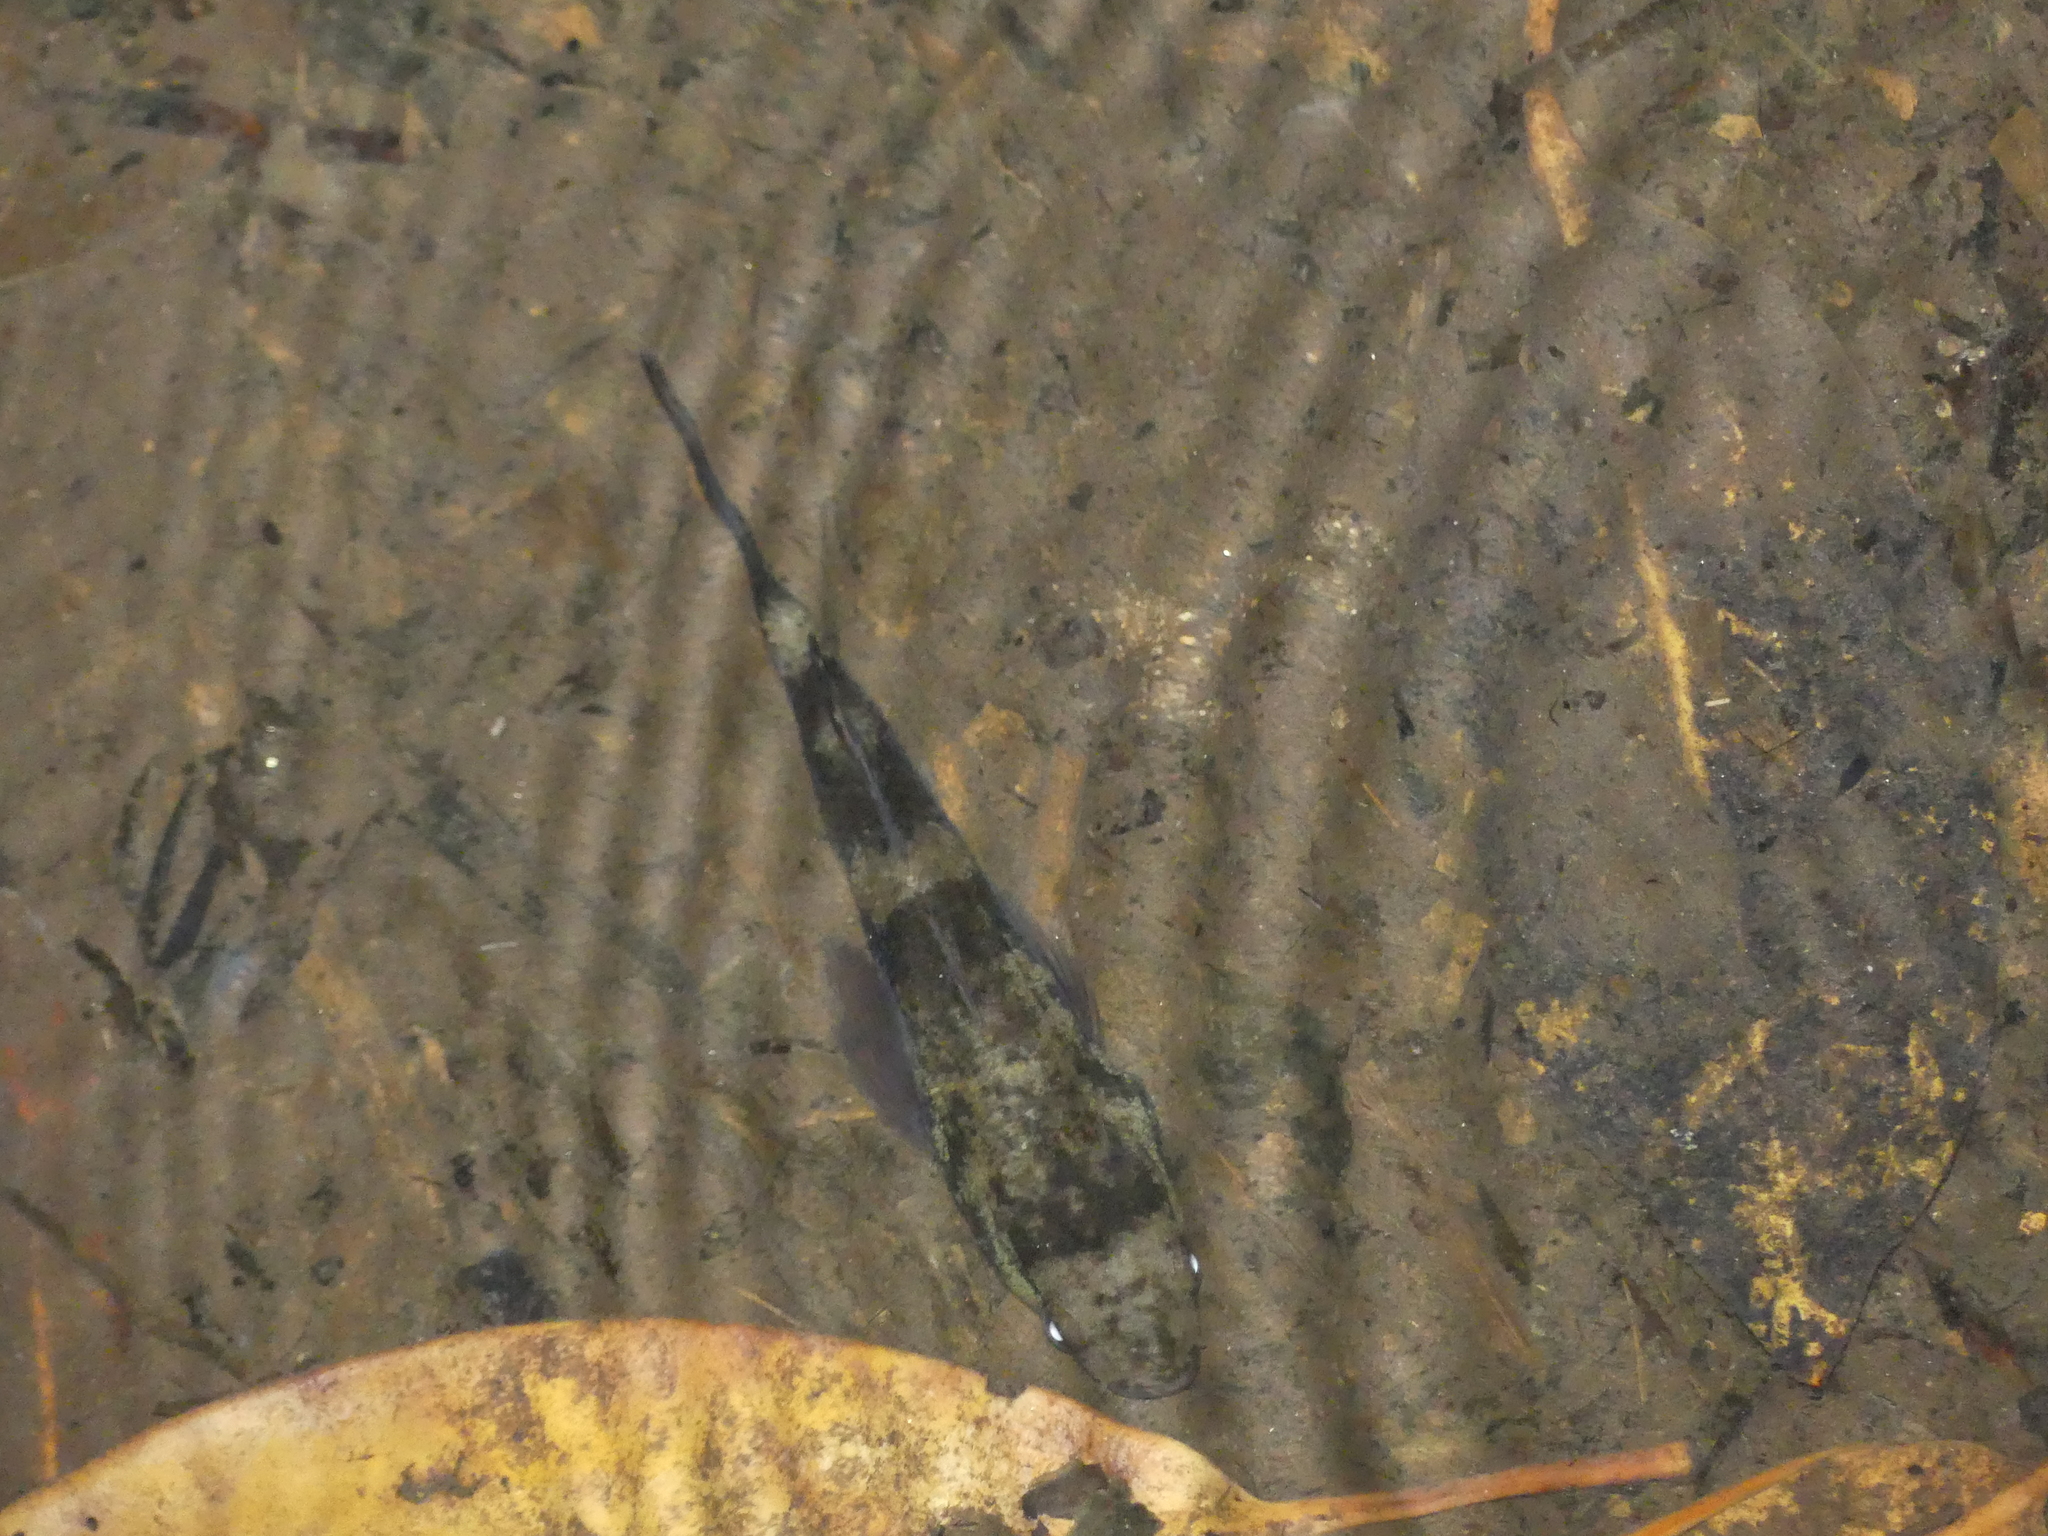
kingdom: Animalia
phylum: Chordata
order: Perciformes
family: Eleotridae
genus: Ophiocara
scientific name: Ophiocara porocephala
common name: Spangled gudgeon
